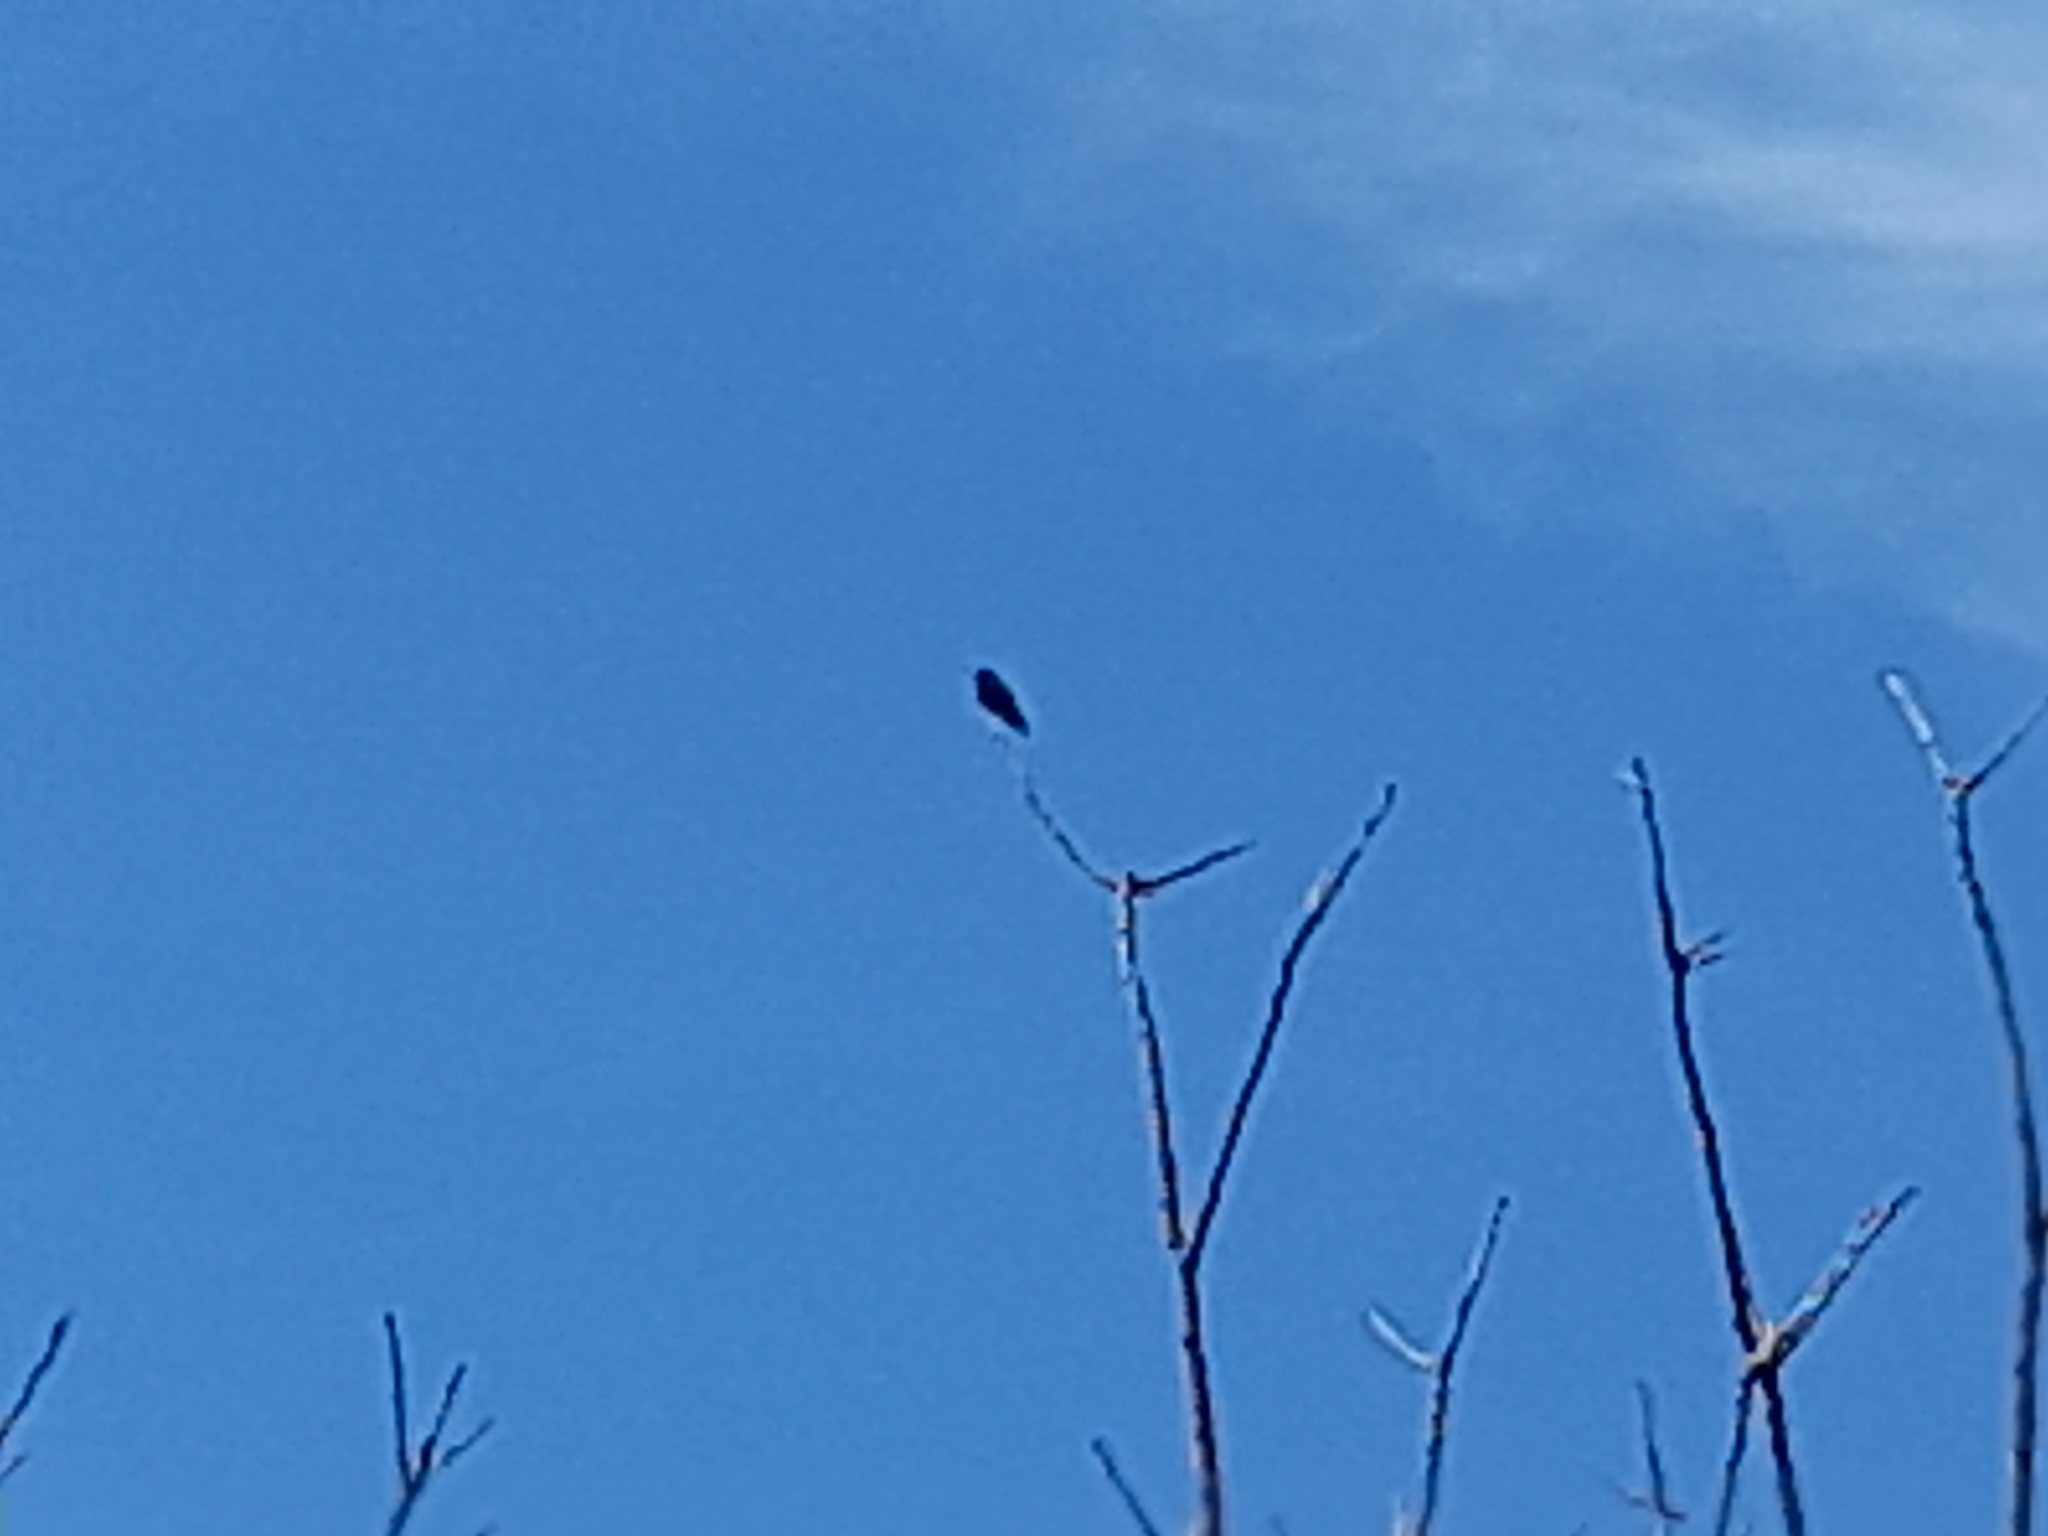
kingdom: Animalia
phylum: Chordata
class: Aves
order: Apodiformes
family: Trochilidae
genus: Florisuga
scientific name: Florisuga fusca
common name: Black jacobin
